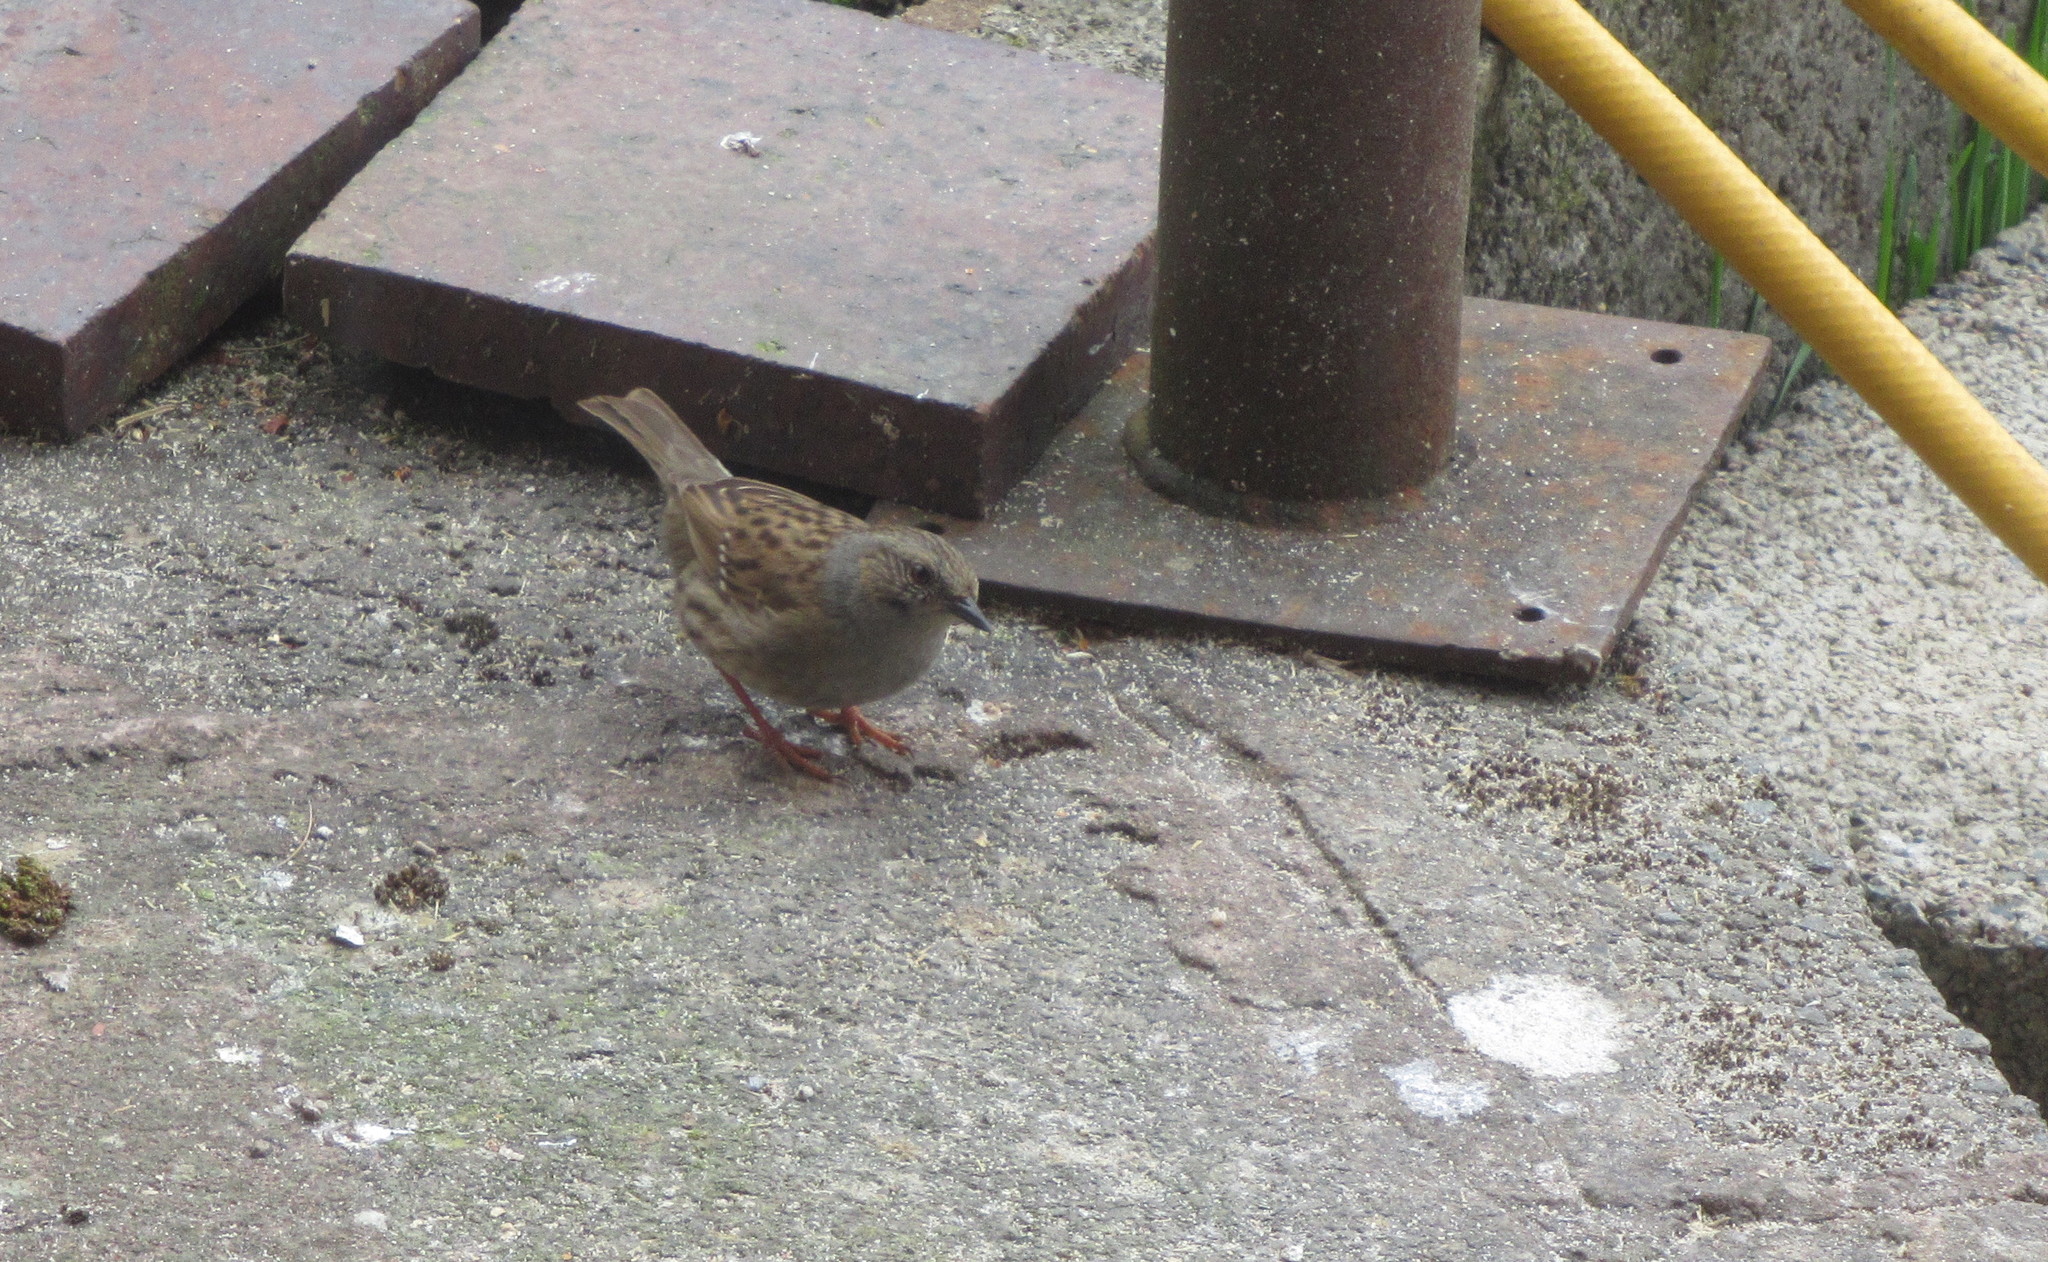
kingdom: Animalia
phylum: Chordata
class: Aves
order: Passeriformes
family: Prunellidae
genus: Prunella
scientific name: Prunella modularis
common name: Dunnock
